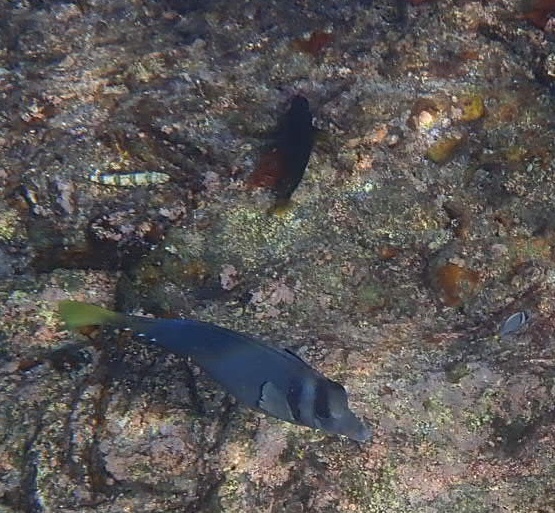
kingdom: Animalia
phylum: Chordata
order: Perciformes
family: Acanthuridae
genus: Prionurus
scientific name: Prionurus laticlavius
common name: Razor surgeonfish
